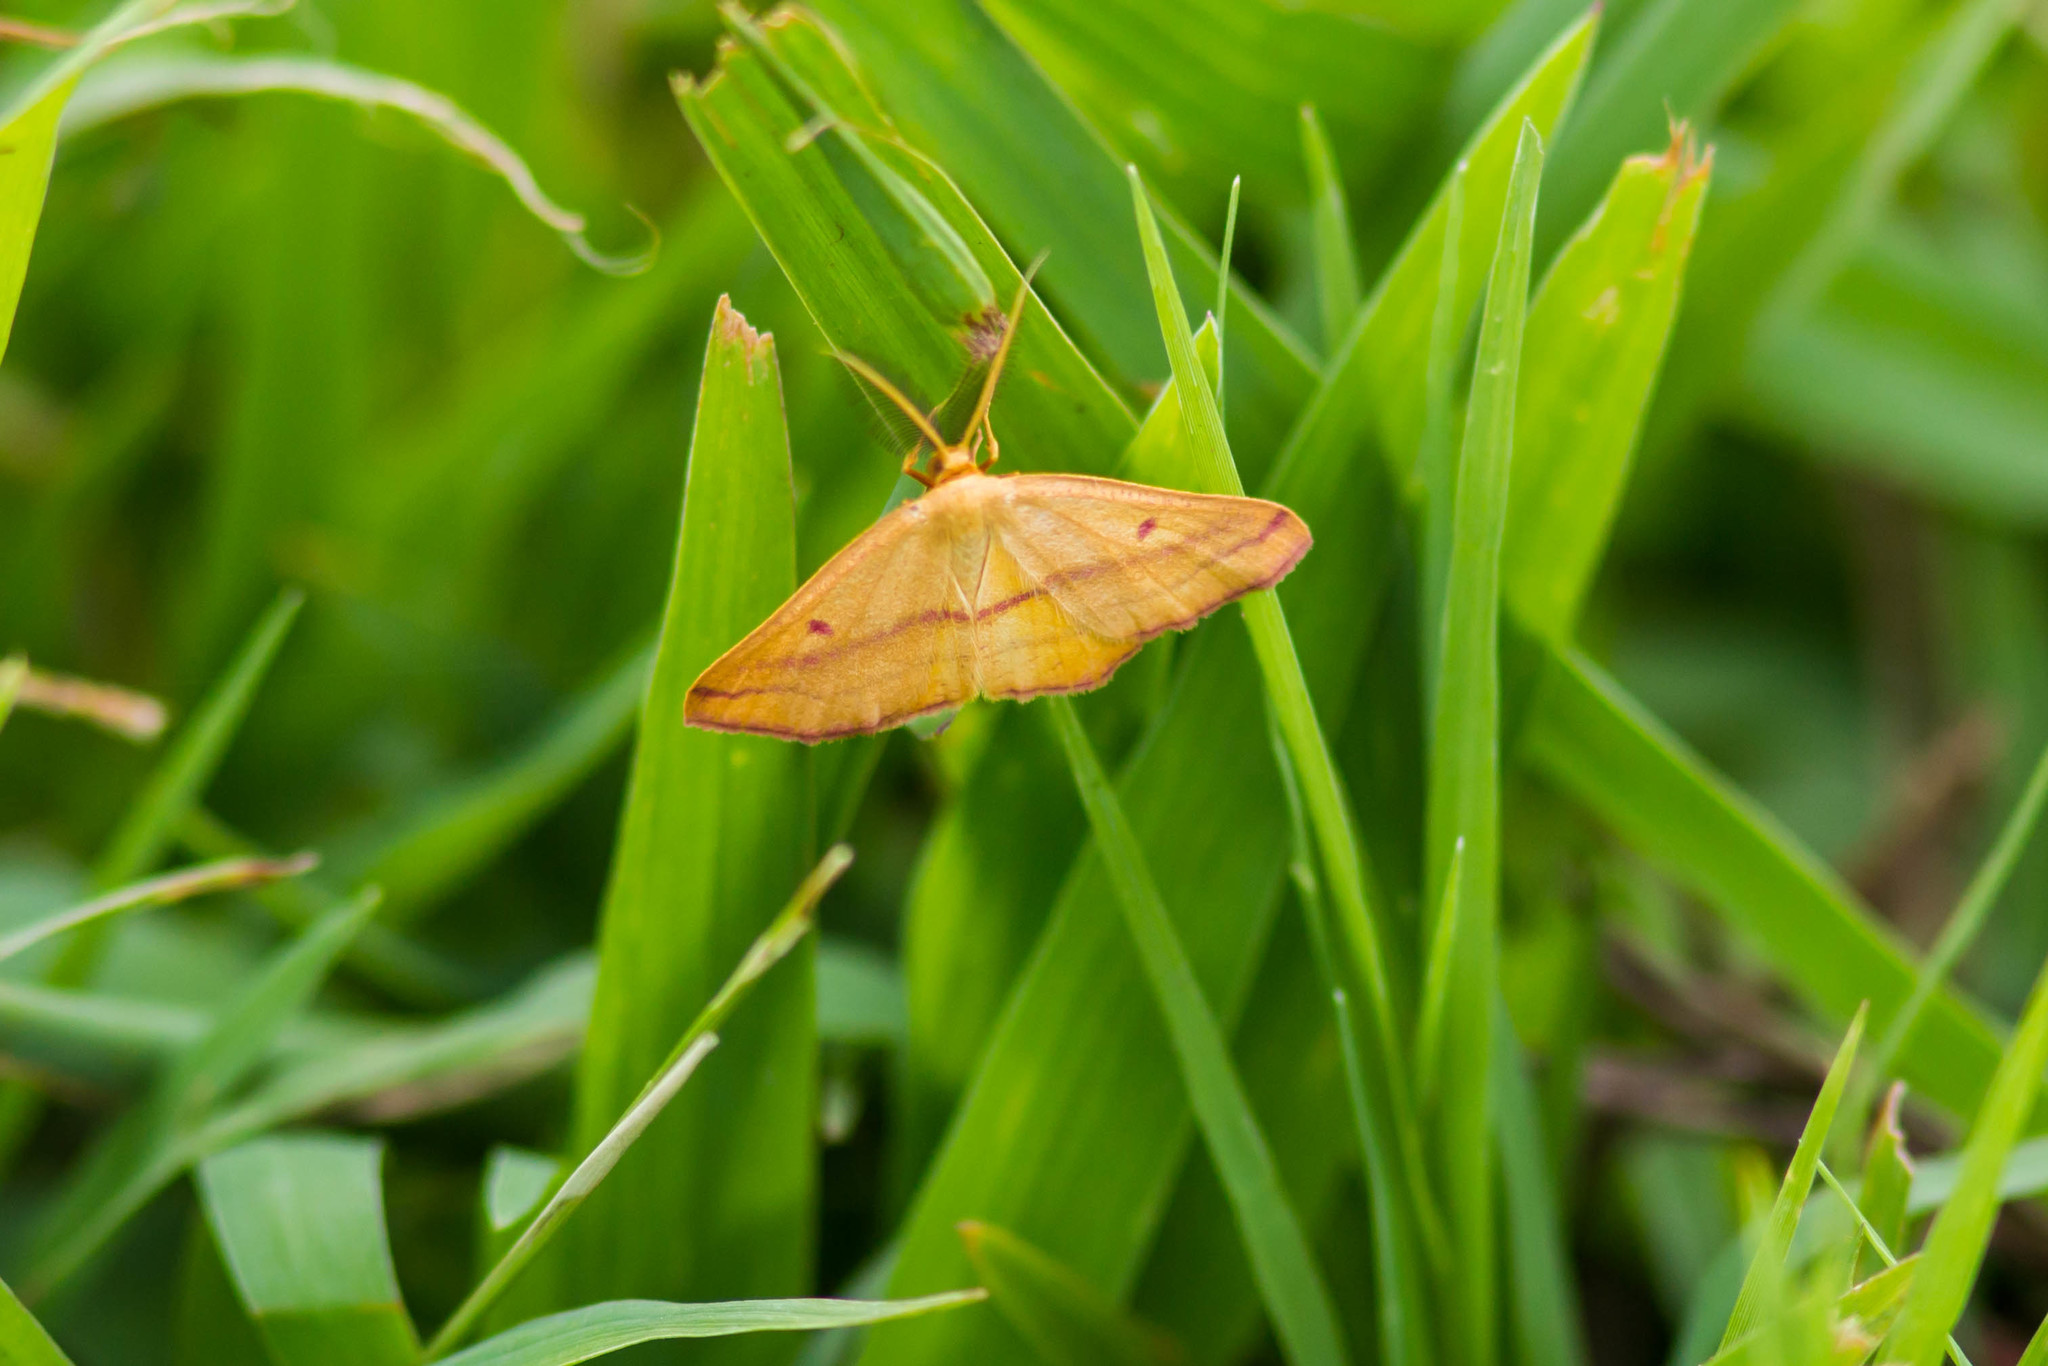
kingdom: Animalia
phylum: Arthropoda
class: Insecta
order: Lepidoptera
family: Geometridae
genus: Haematopis
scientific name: Haematopis grataria
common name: Chickweed geometer
